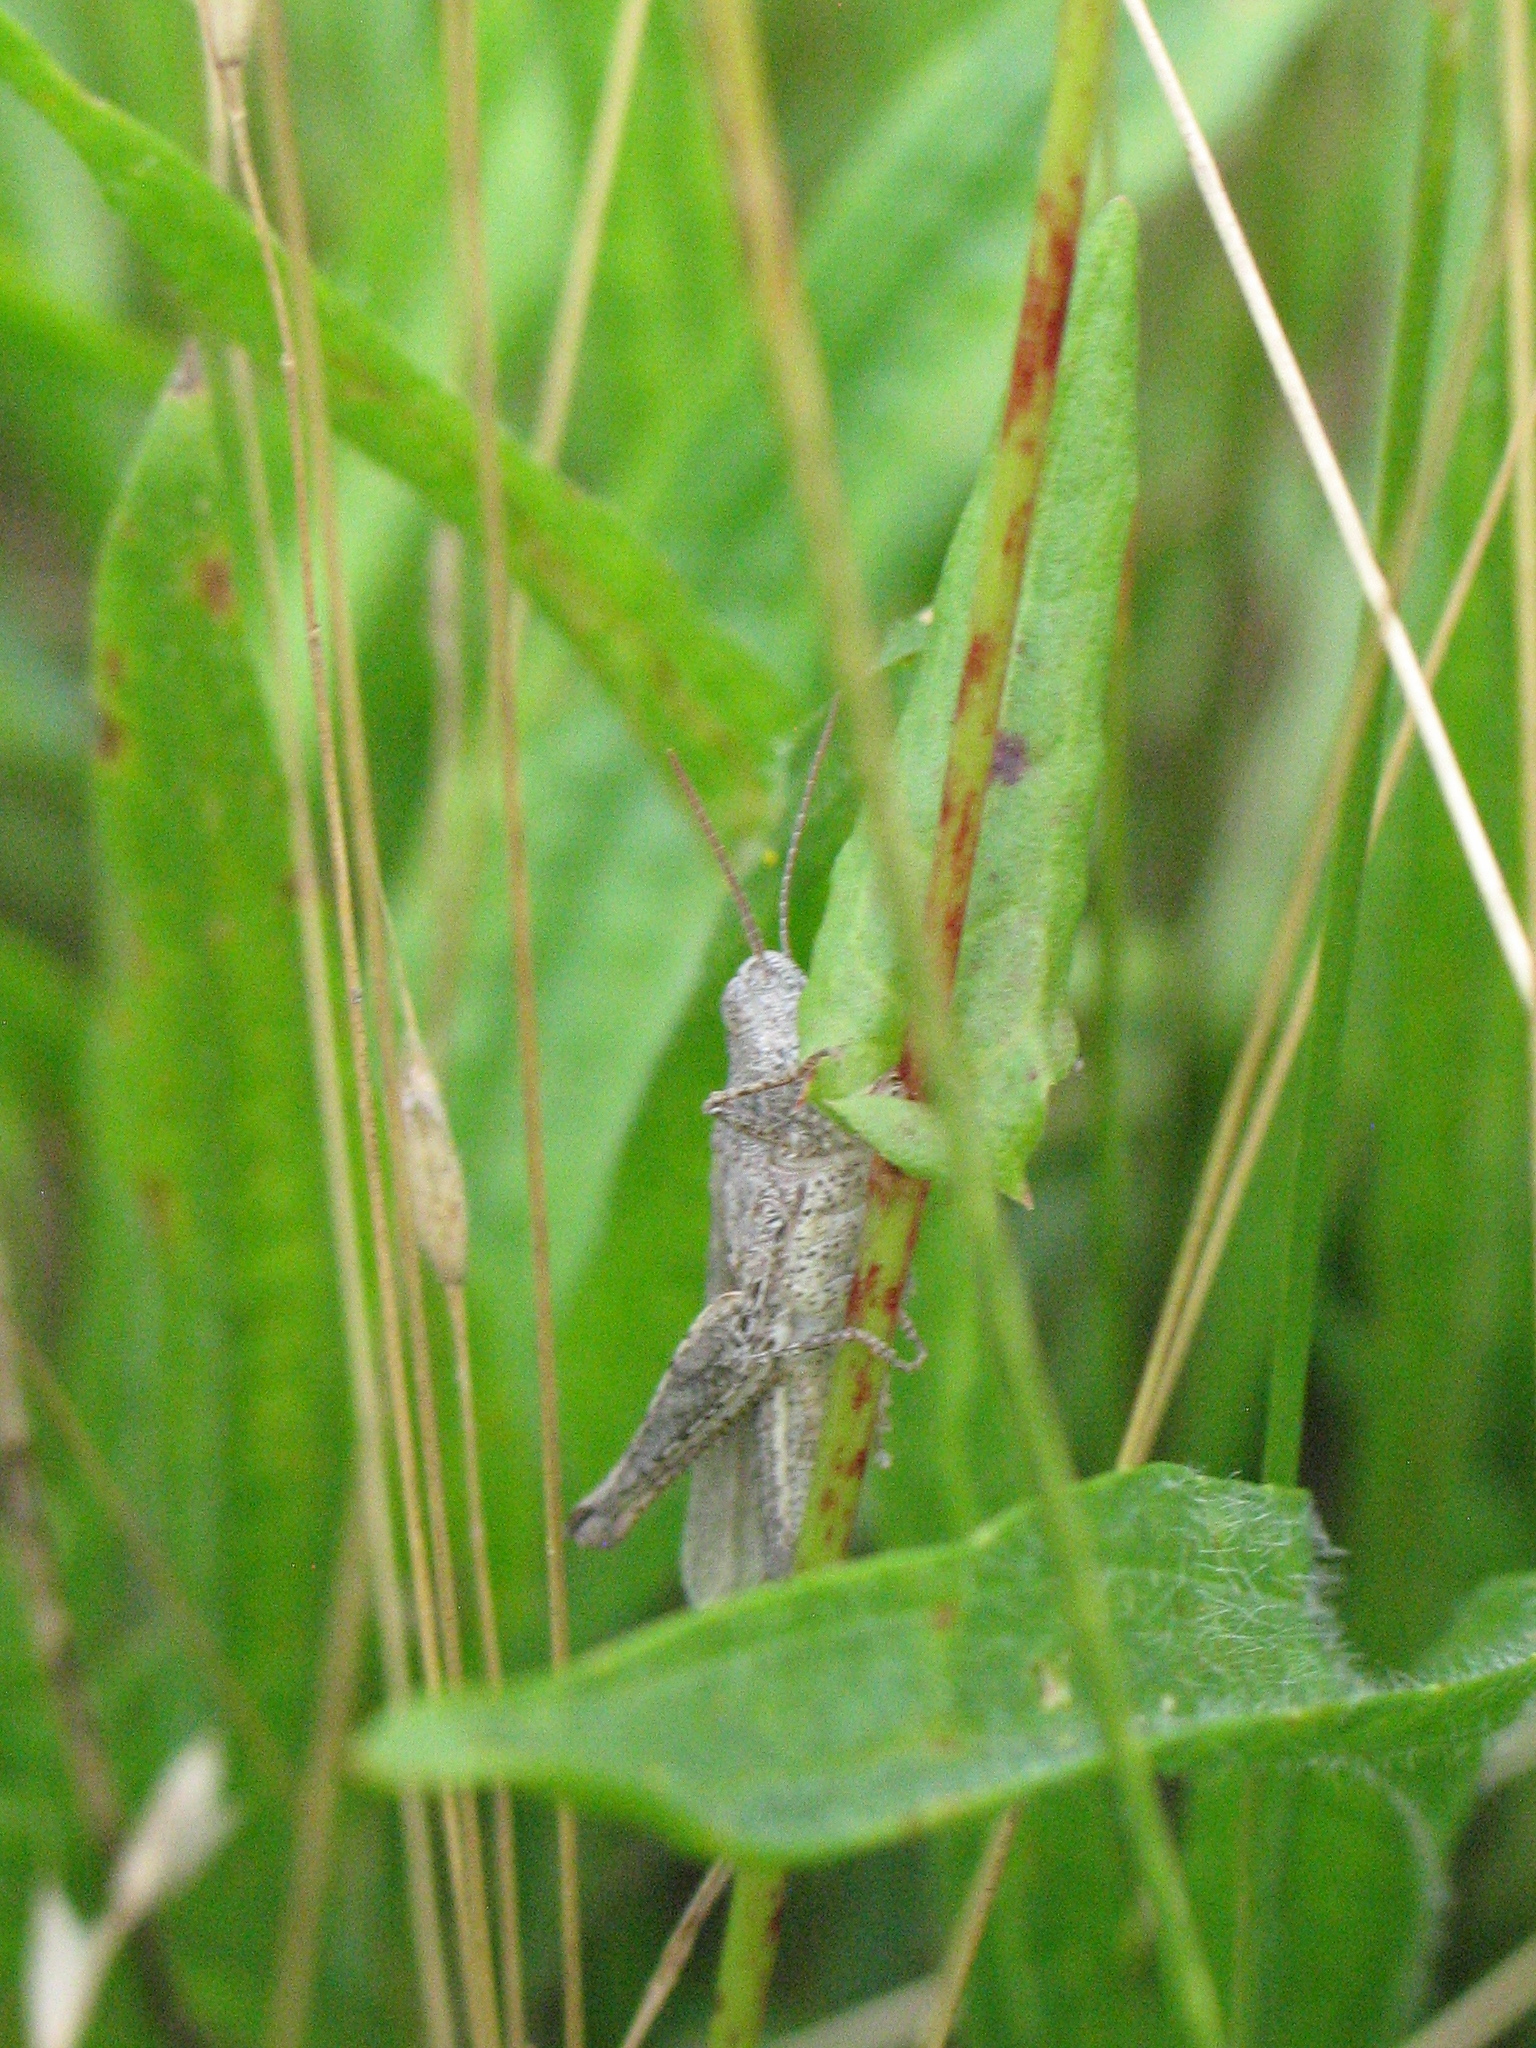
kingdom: Animalia
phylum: Arthropoda
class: Insecta
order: Orthoptera
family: Acrididae
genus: Chorthippus
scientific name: Chorthippus brunneus
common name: Field grasshopper
